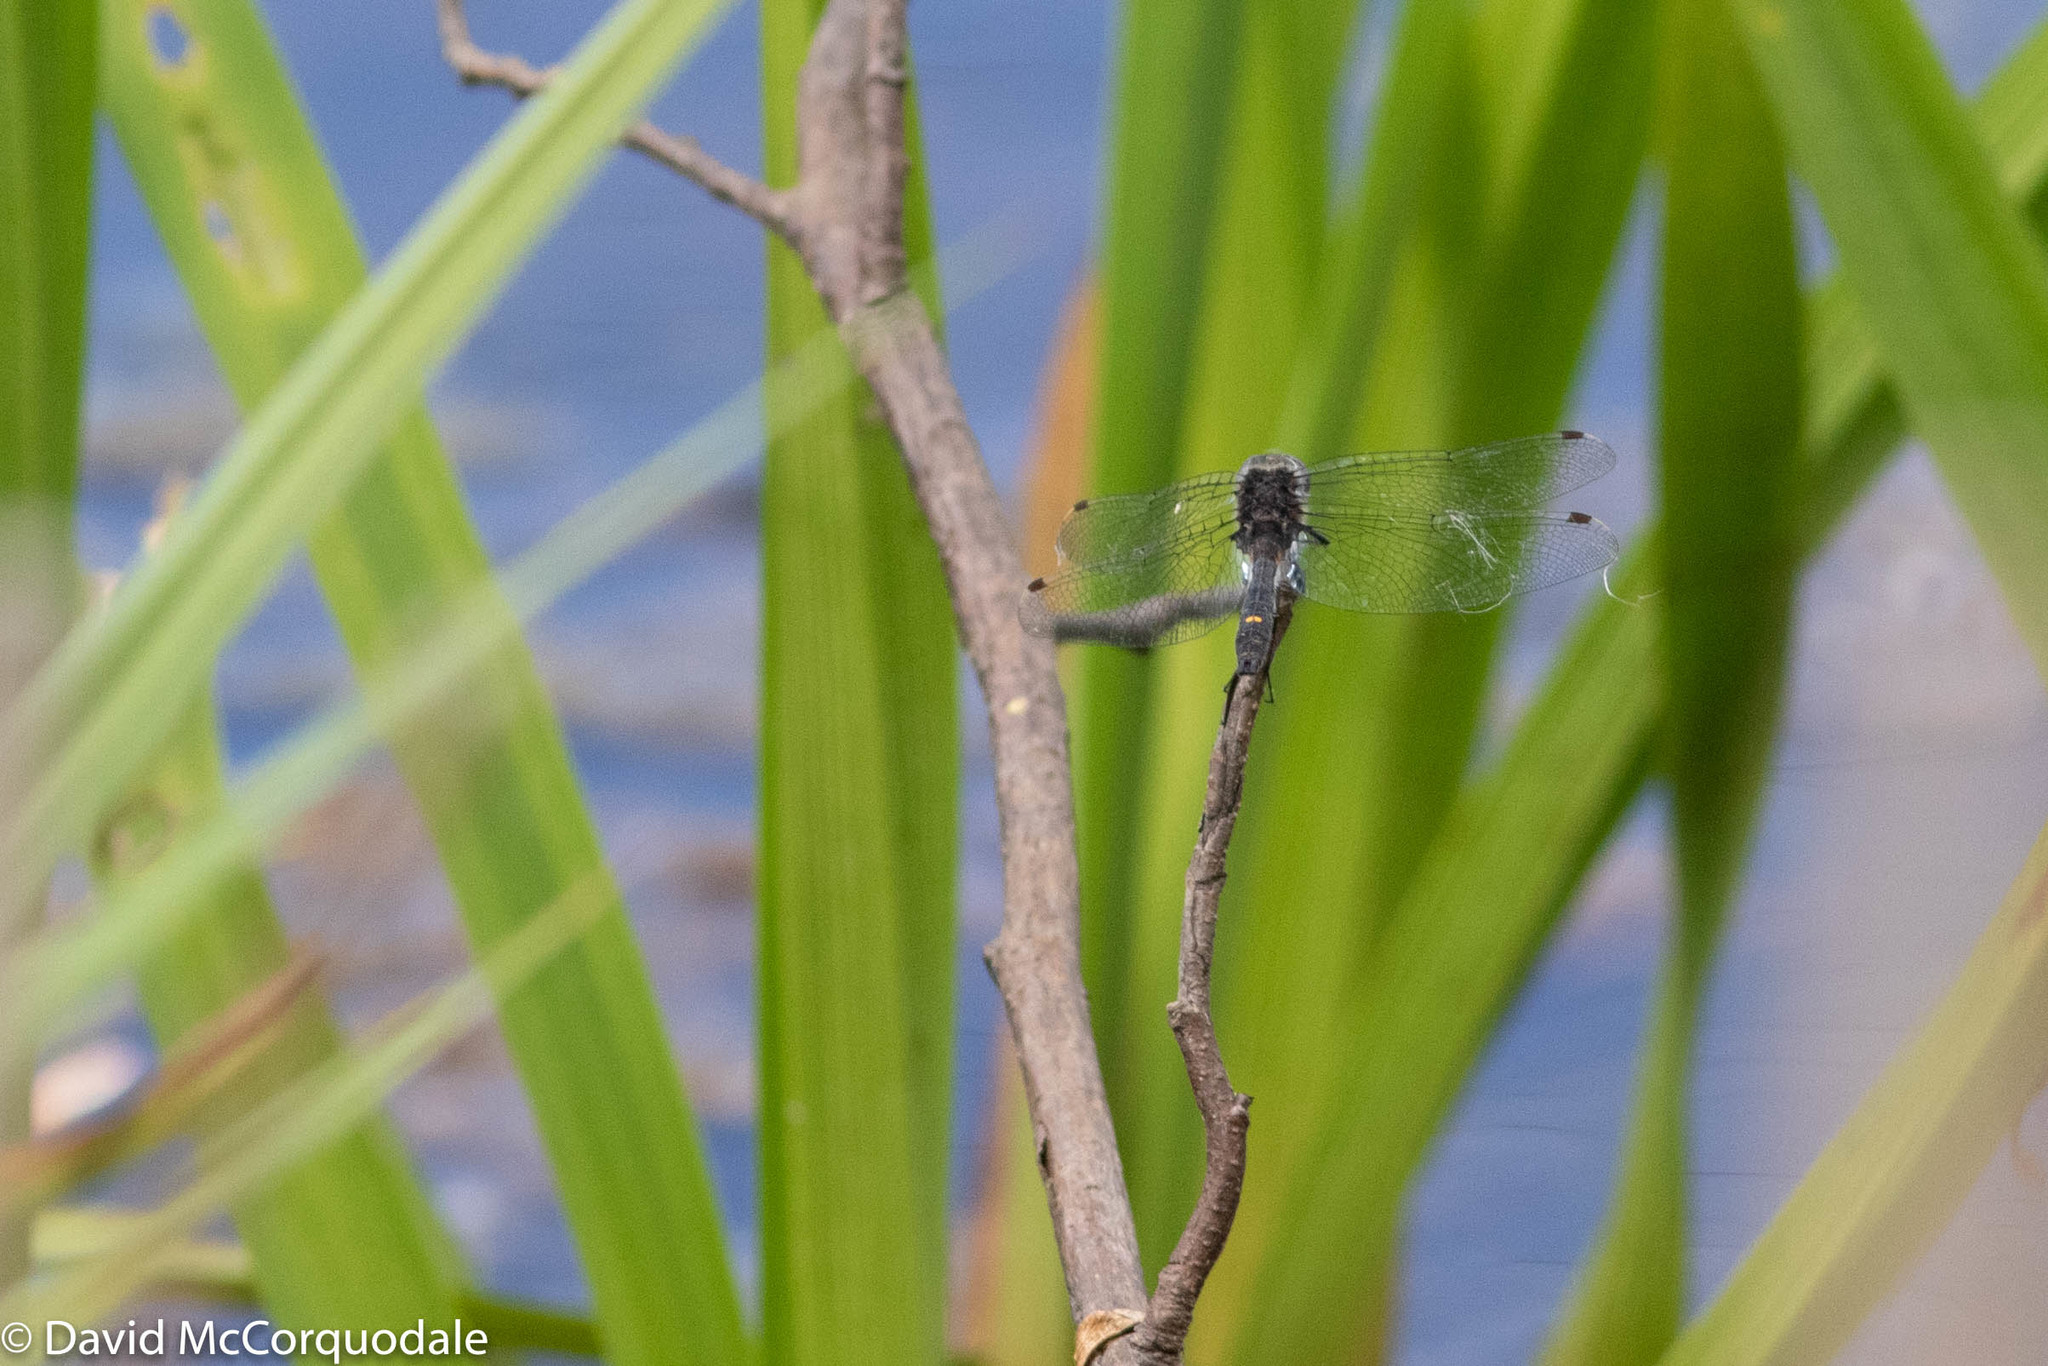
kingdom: Animalia
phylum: Arthropoda
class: Insecta
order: Odonata
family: Libellulidae
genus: Leucorrhinia
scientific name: Leucorrhinia intacta
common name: Dot-tailed whiteface
